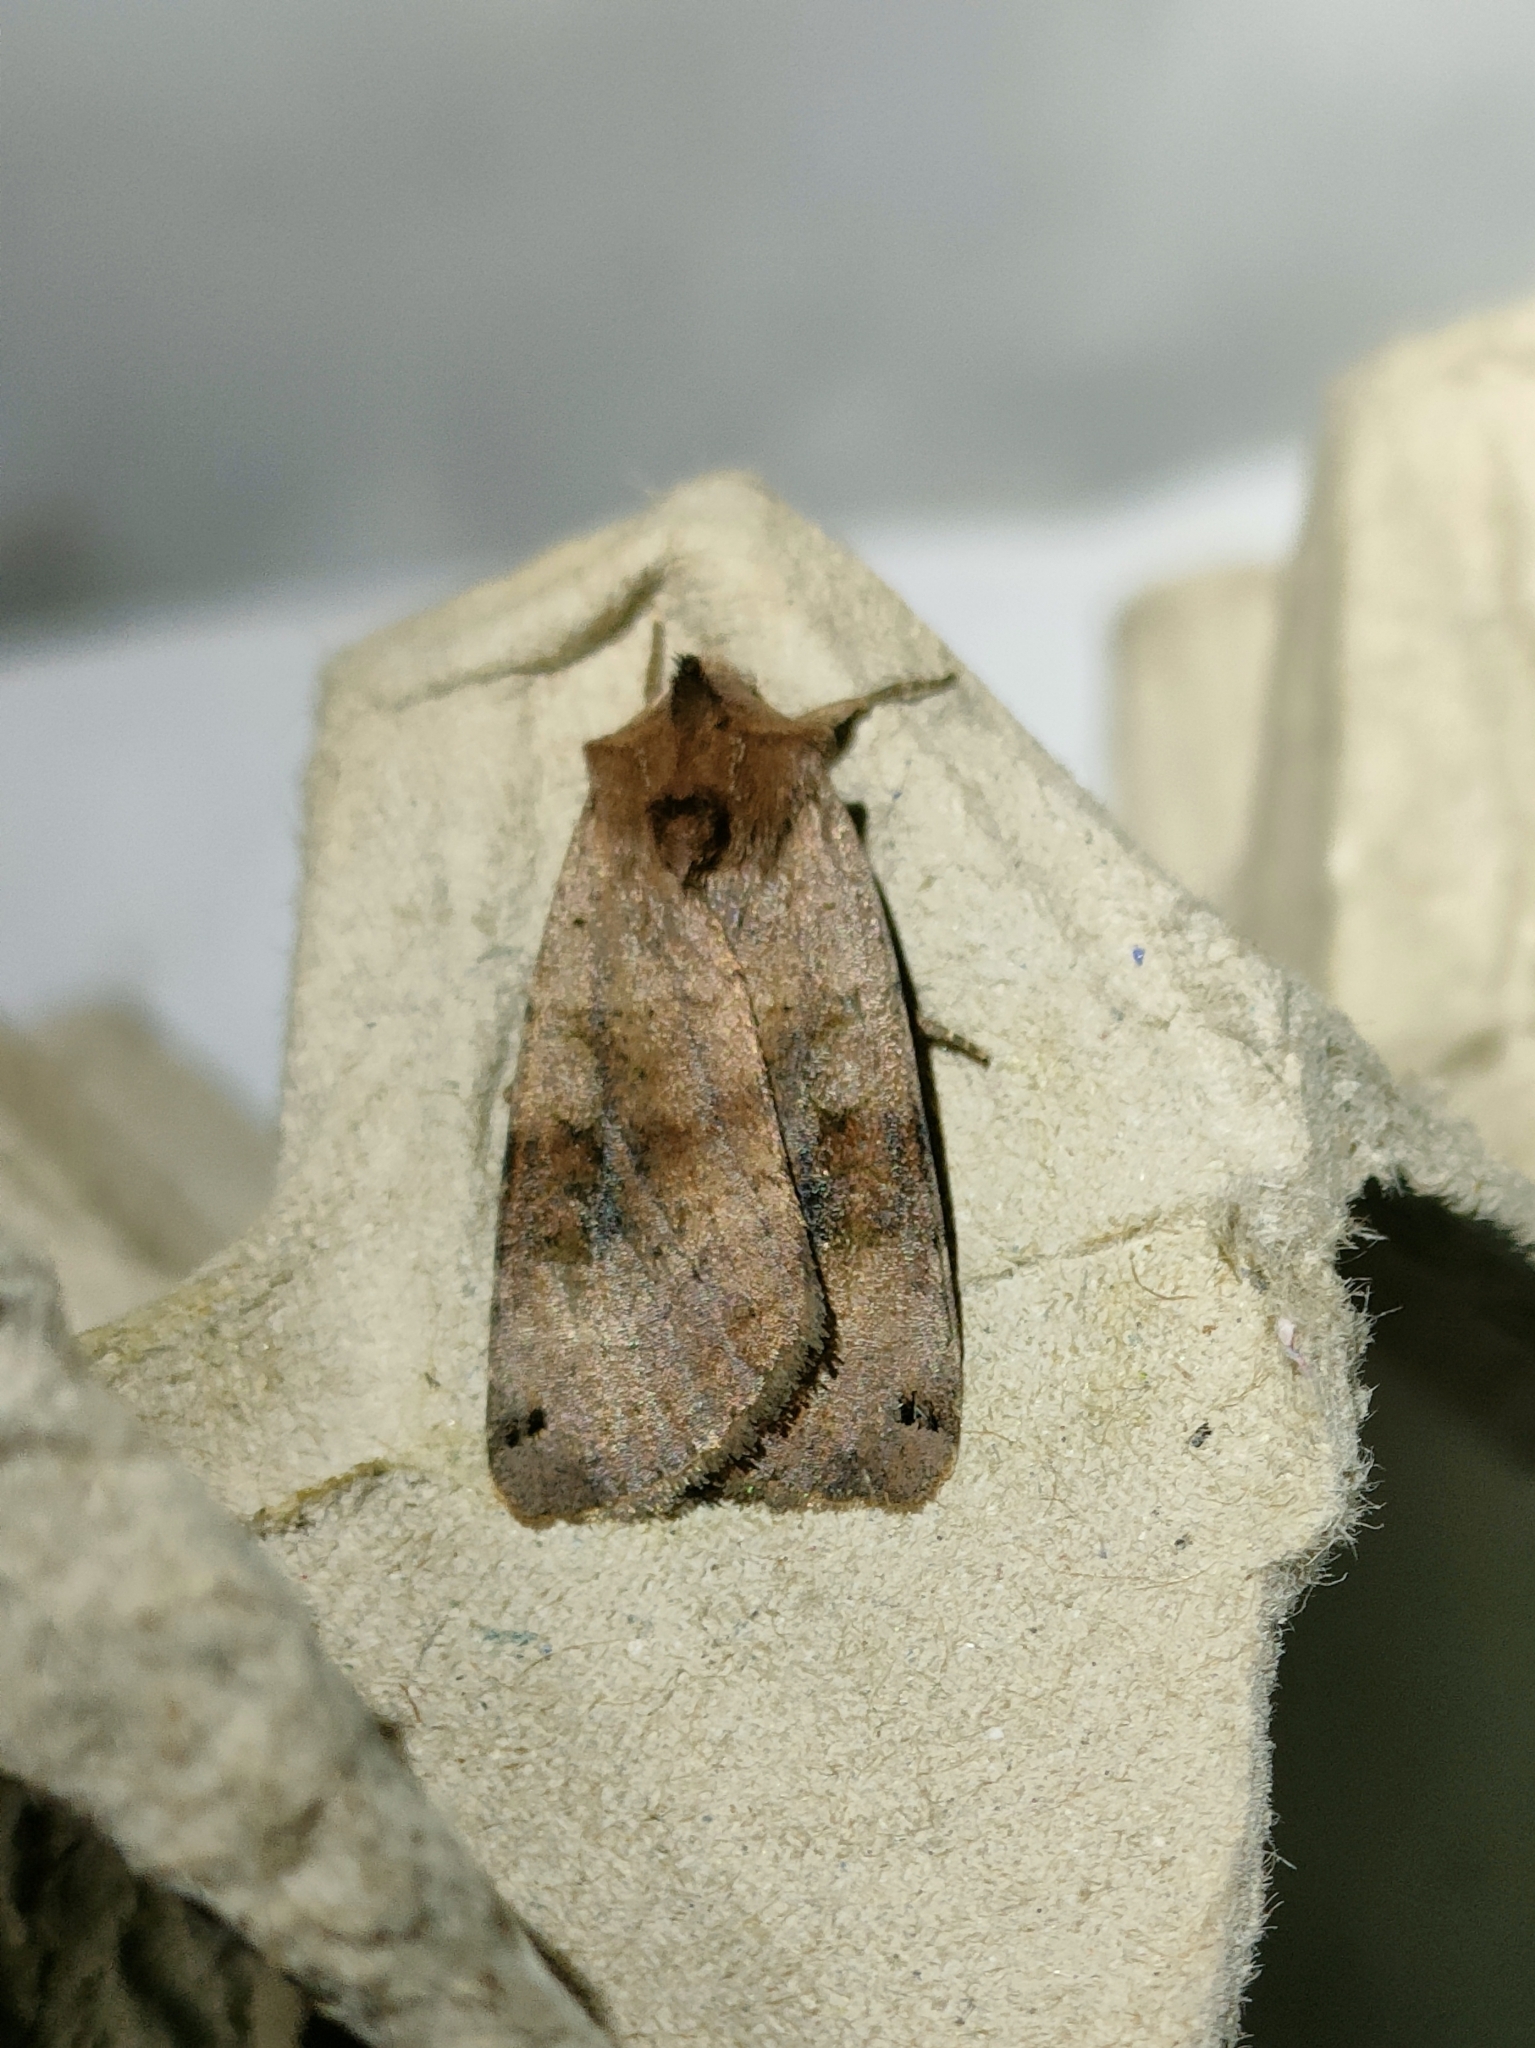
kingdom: Animalia
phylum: Arthropoda
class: Insecta
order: Lepidoptera
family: Noctuidae
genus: Xestia
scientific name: Xestia baja
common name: Dotted clay
